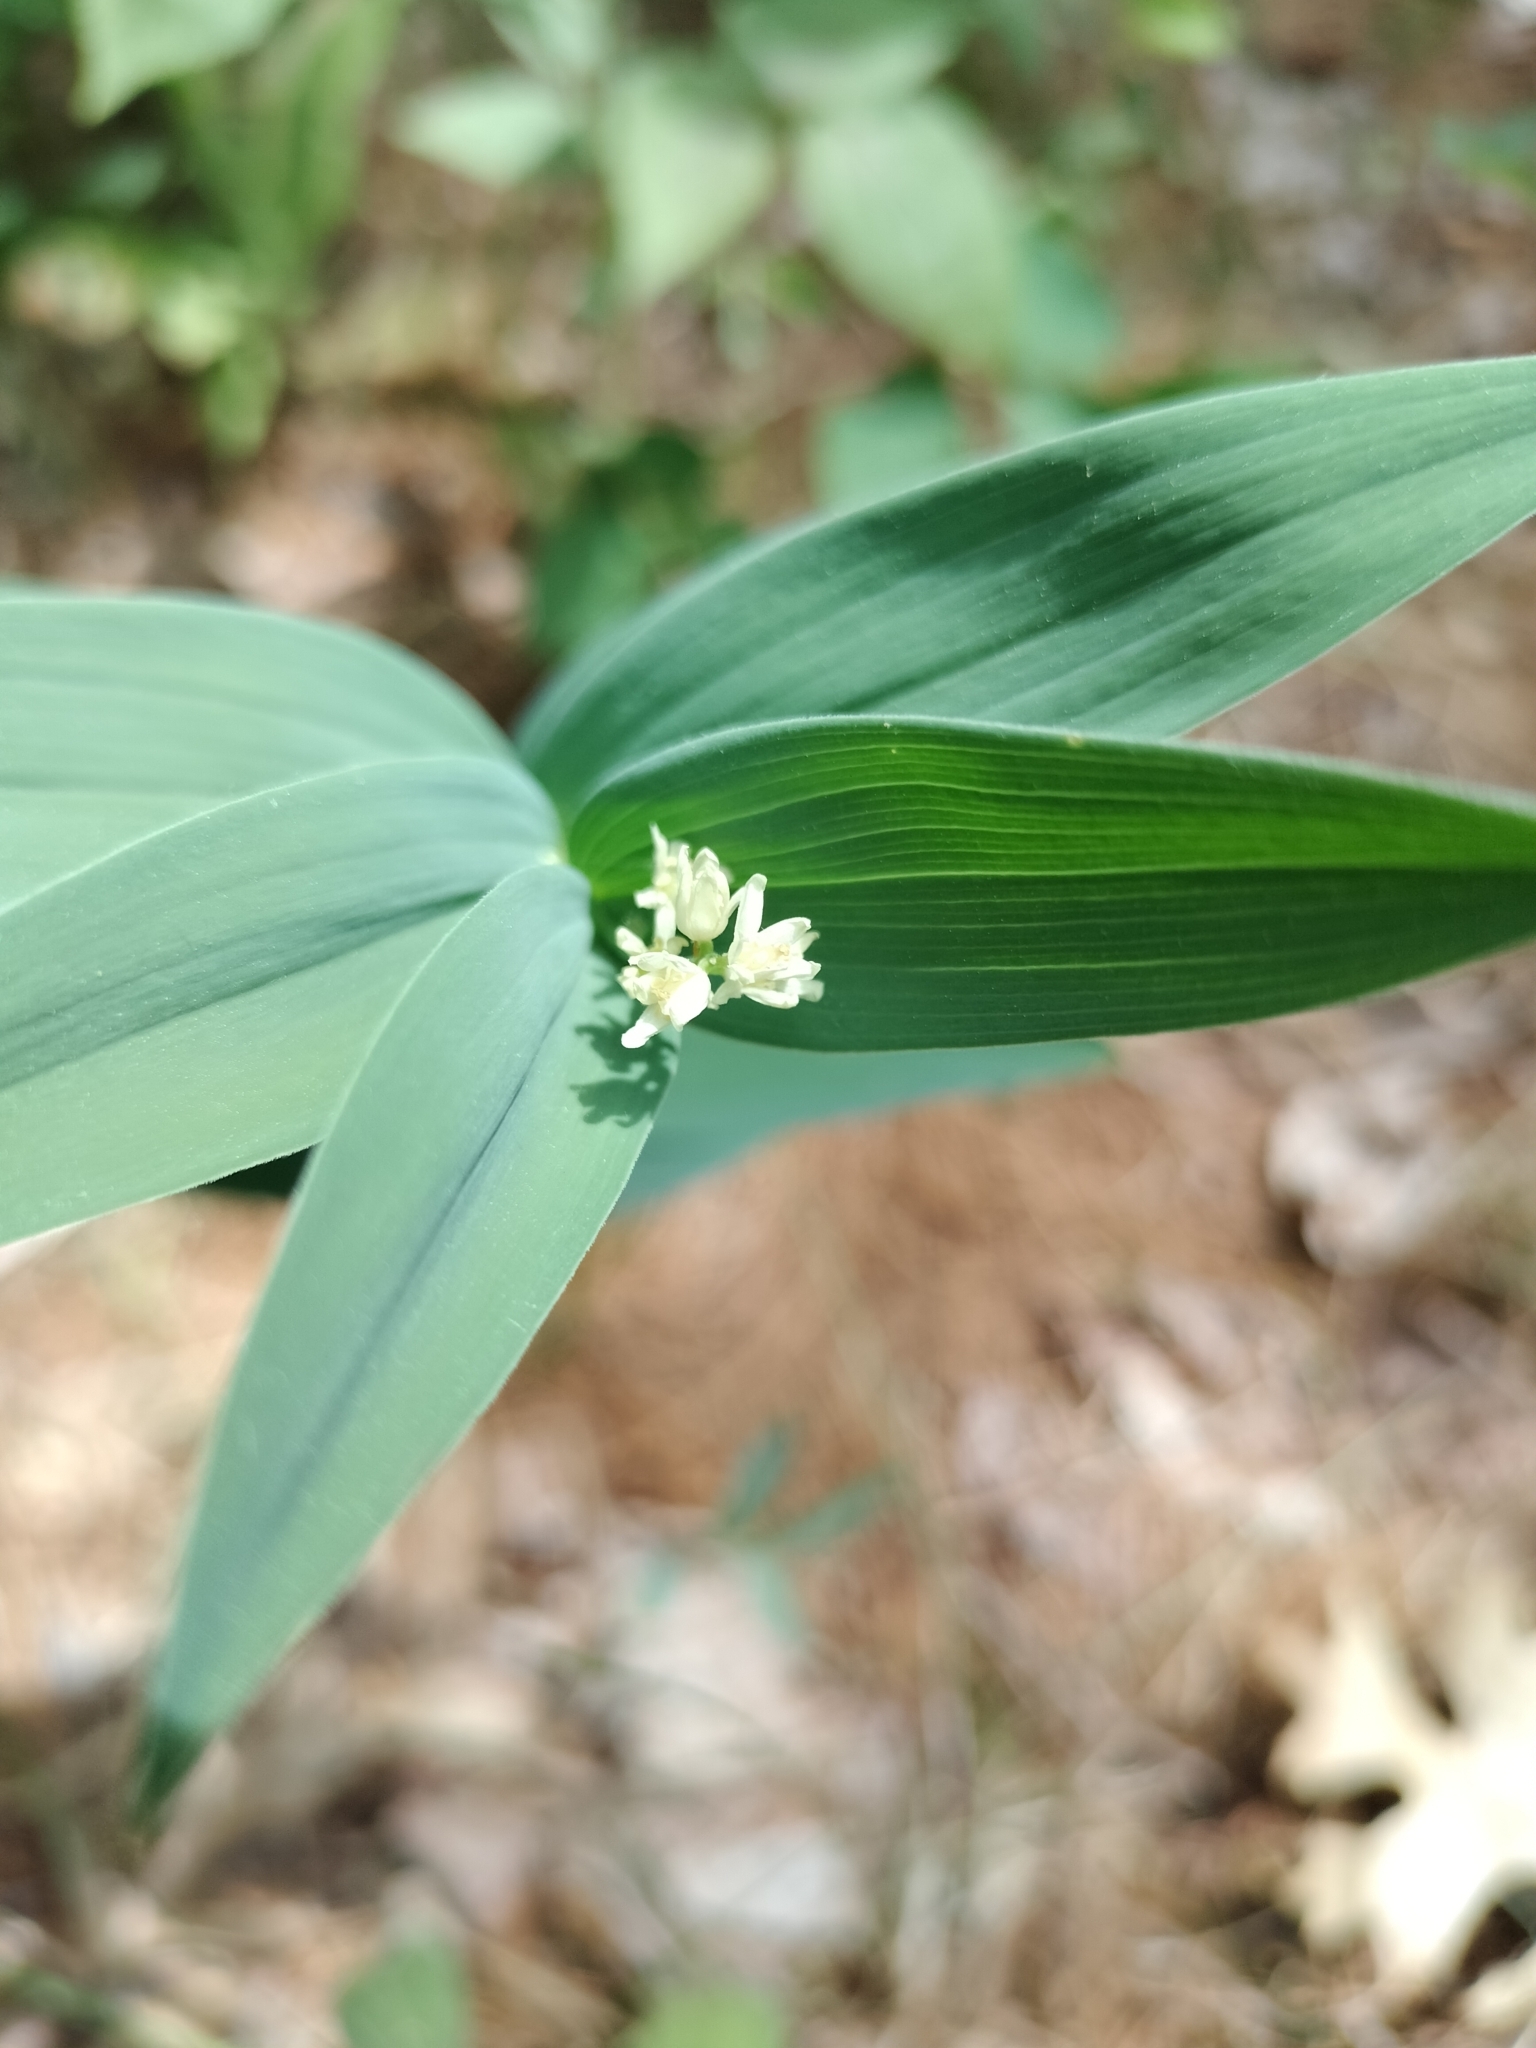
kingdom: Plantae
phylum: Tracheophyta
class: Liliopsida
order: Asparagales
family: Asparagaceae
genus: Maianthemum
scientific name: Maianthemum stellatum
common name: Little false solomon's seal
